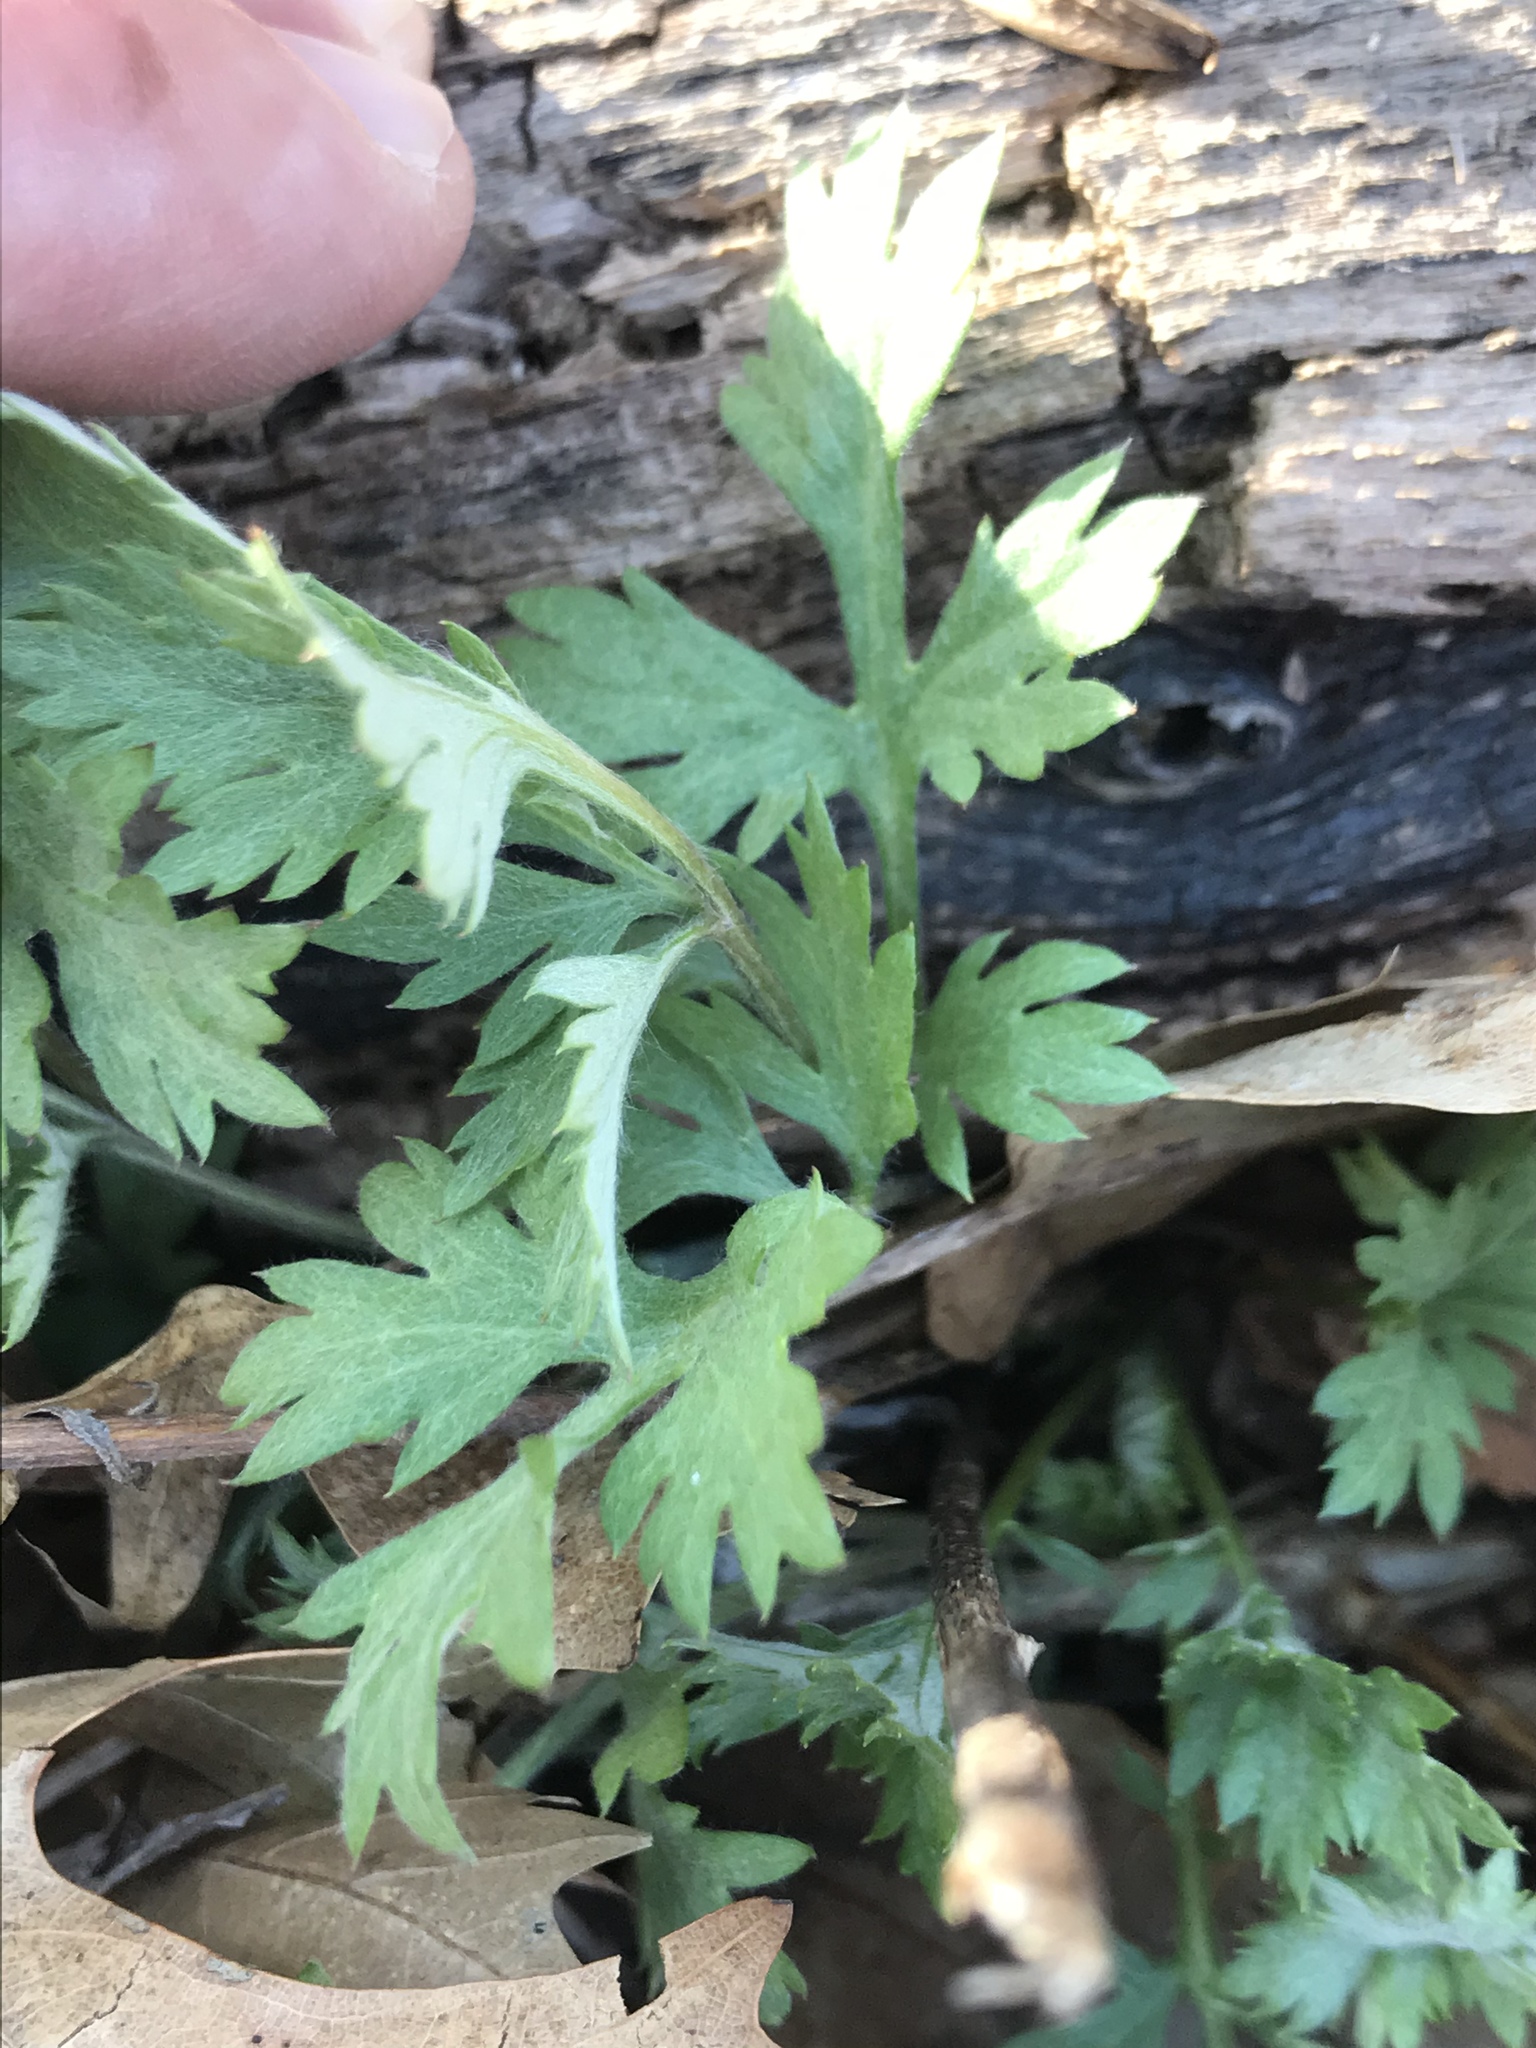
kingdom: Plantae
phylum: Tracheophyta
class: Magnoliopsida
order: Asterales
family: Asteraceae
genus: Artemisia
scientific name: Artemisia vulgaris
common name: Mugwort
